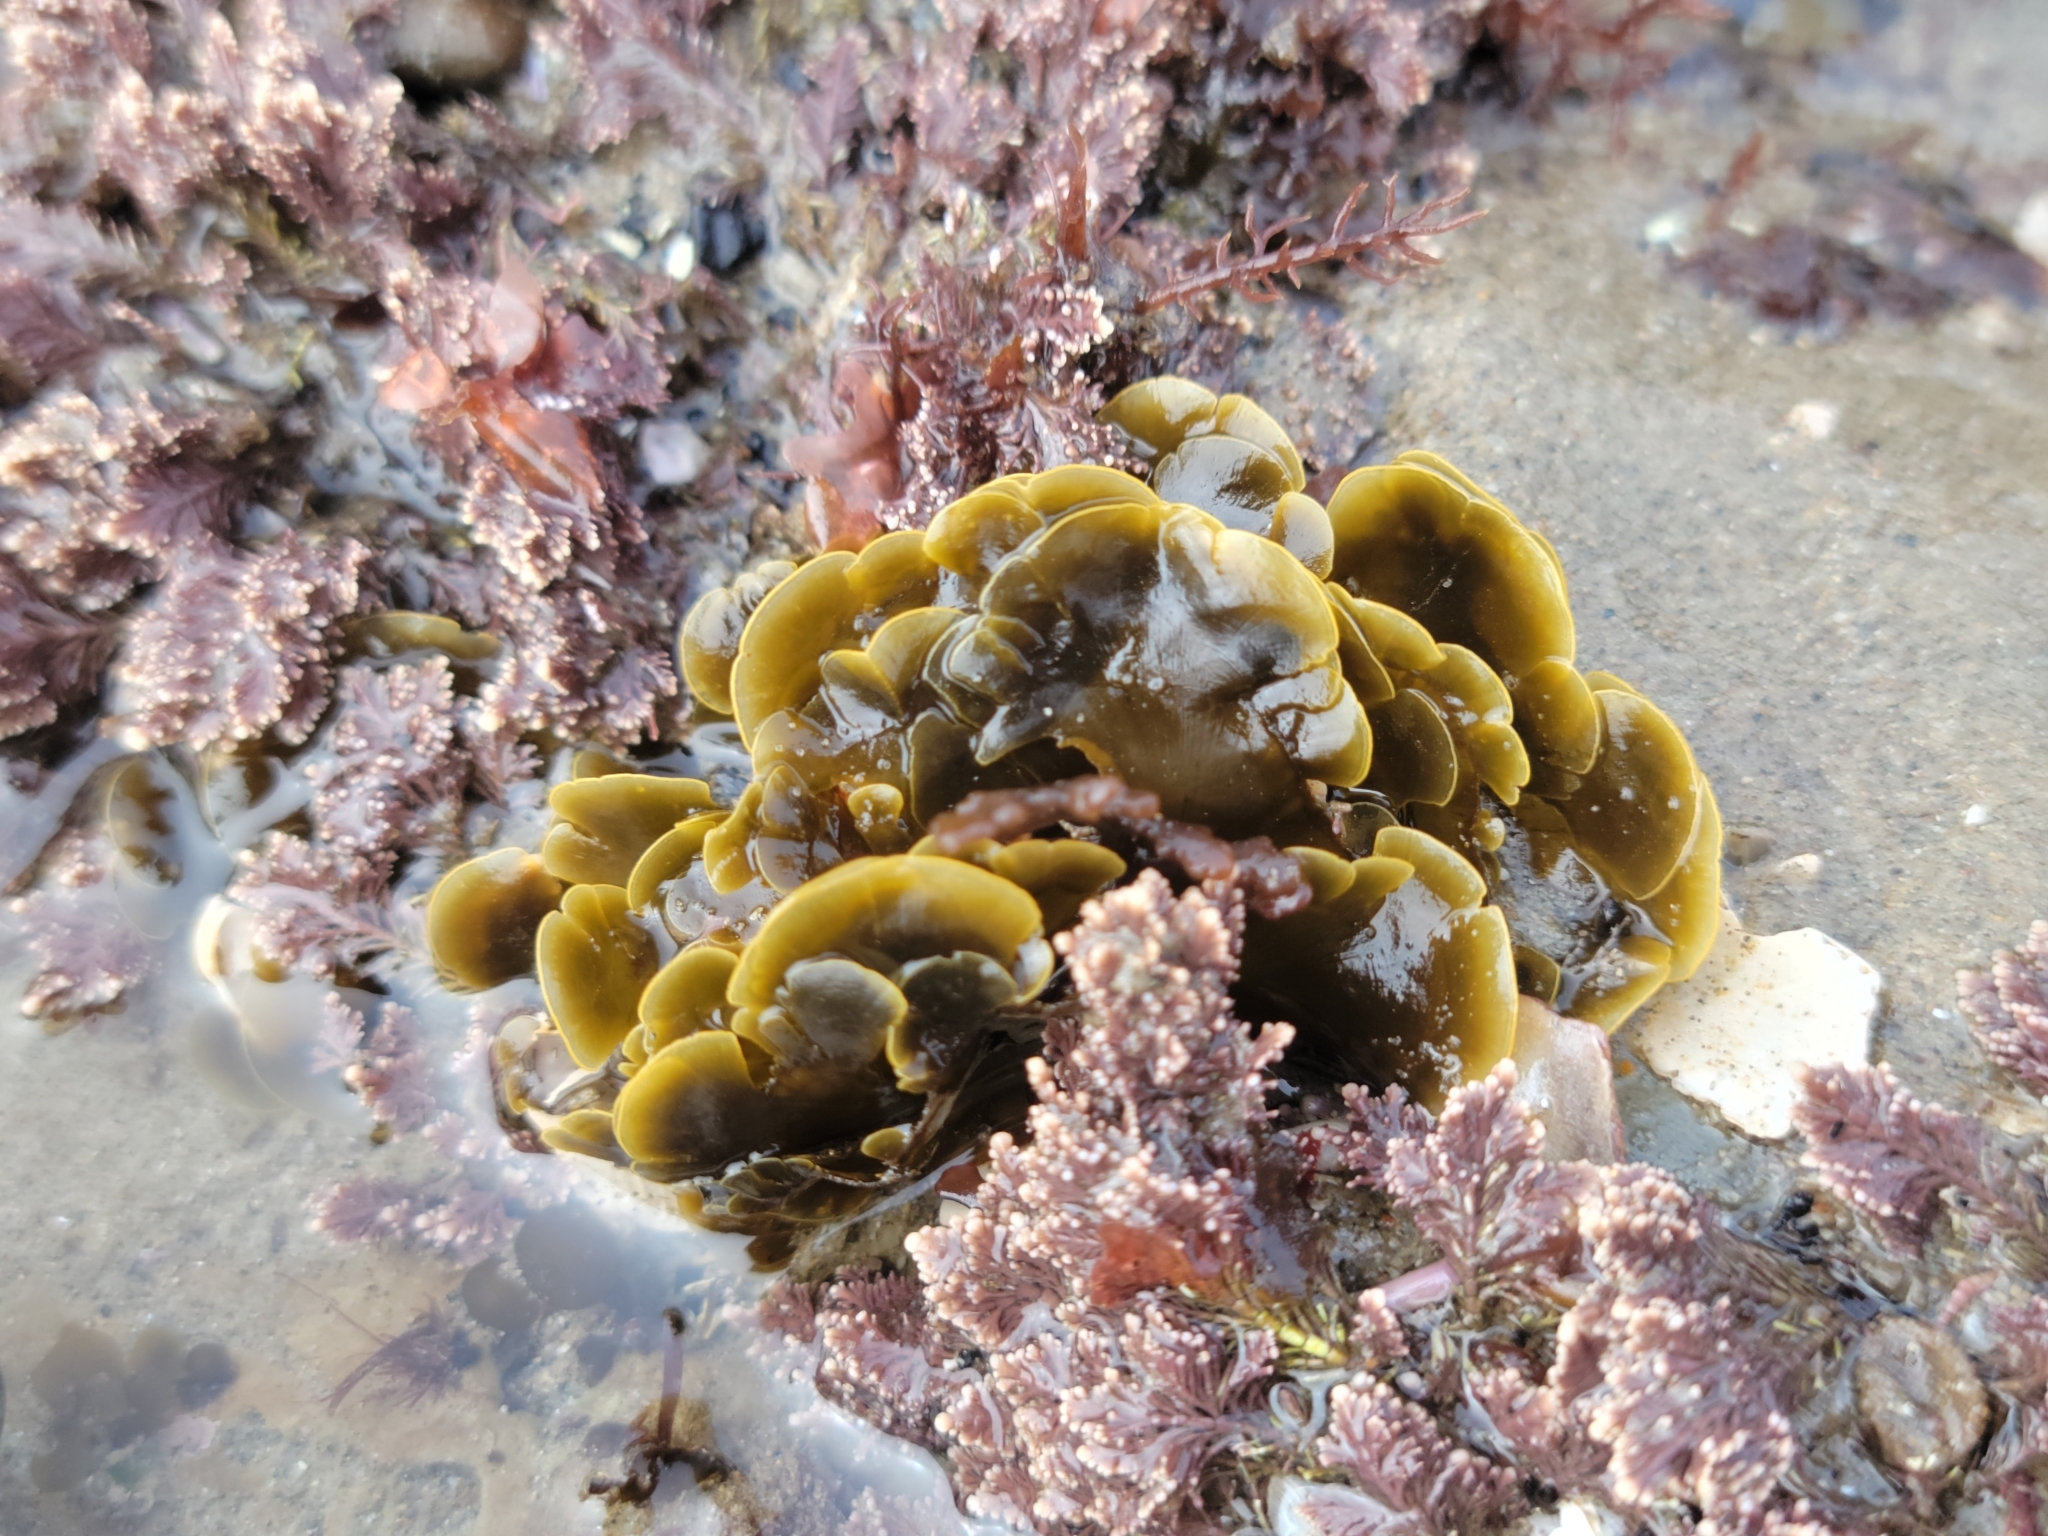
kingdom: Chromista
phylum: Ochrophyta
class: Phaeophyceae
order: Dictyotales
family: Dictyotaceae
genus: Zonaria
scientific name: Zonaria farlowii
